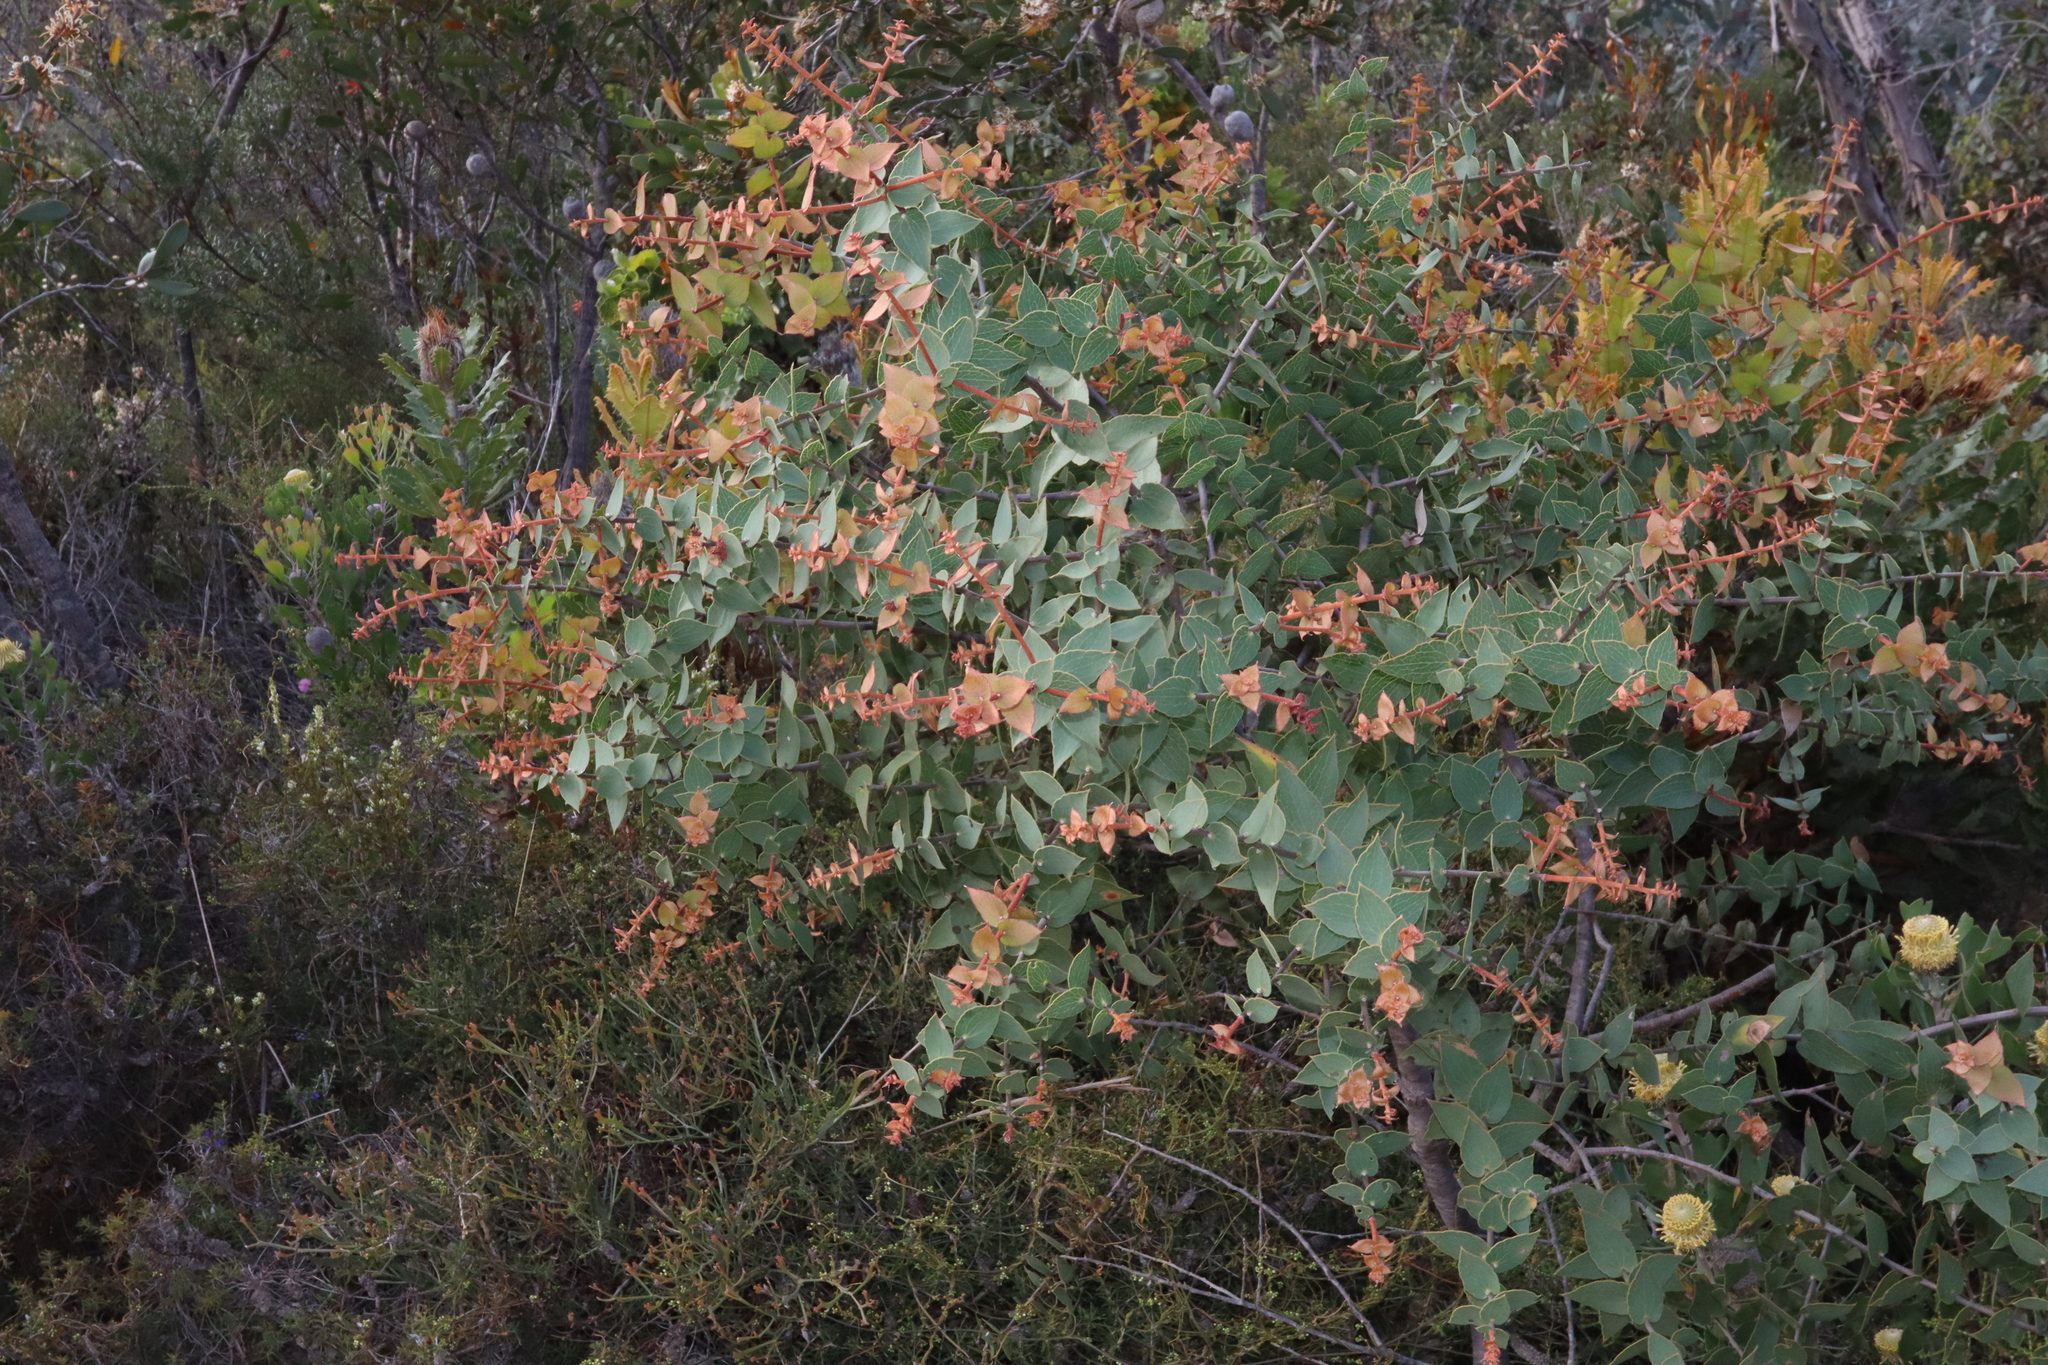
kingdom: Plantae
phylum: Tracheophyta
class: Magnoliopsida
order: Proteales
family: Proteaceae
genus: Hakea
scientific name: Hakea ferruginea
